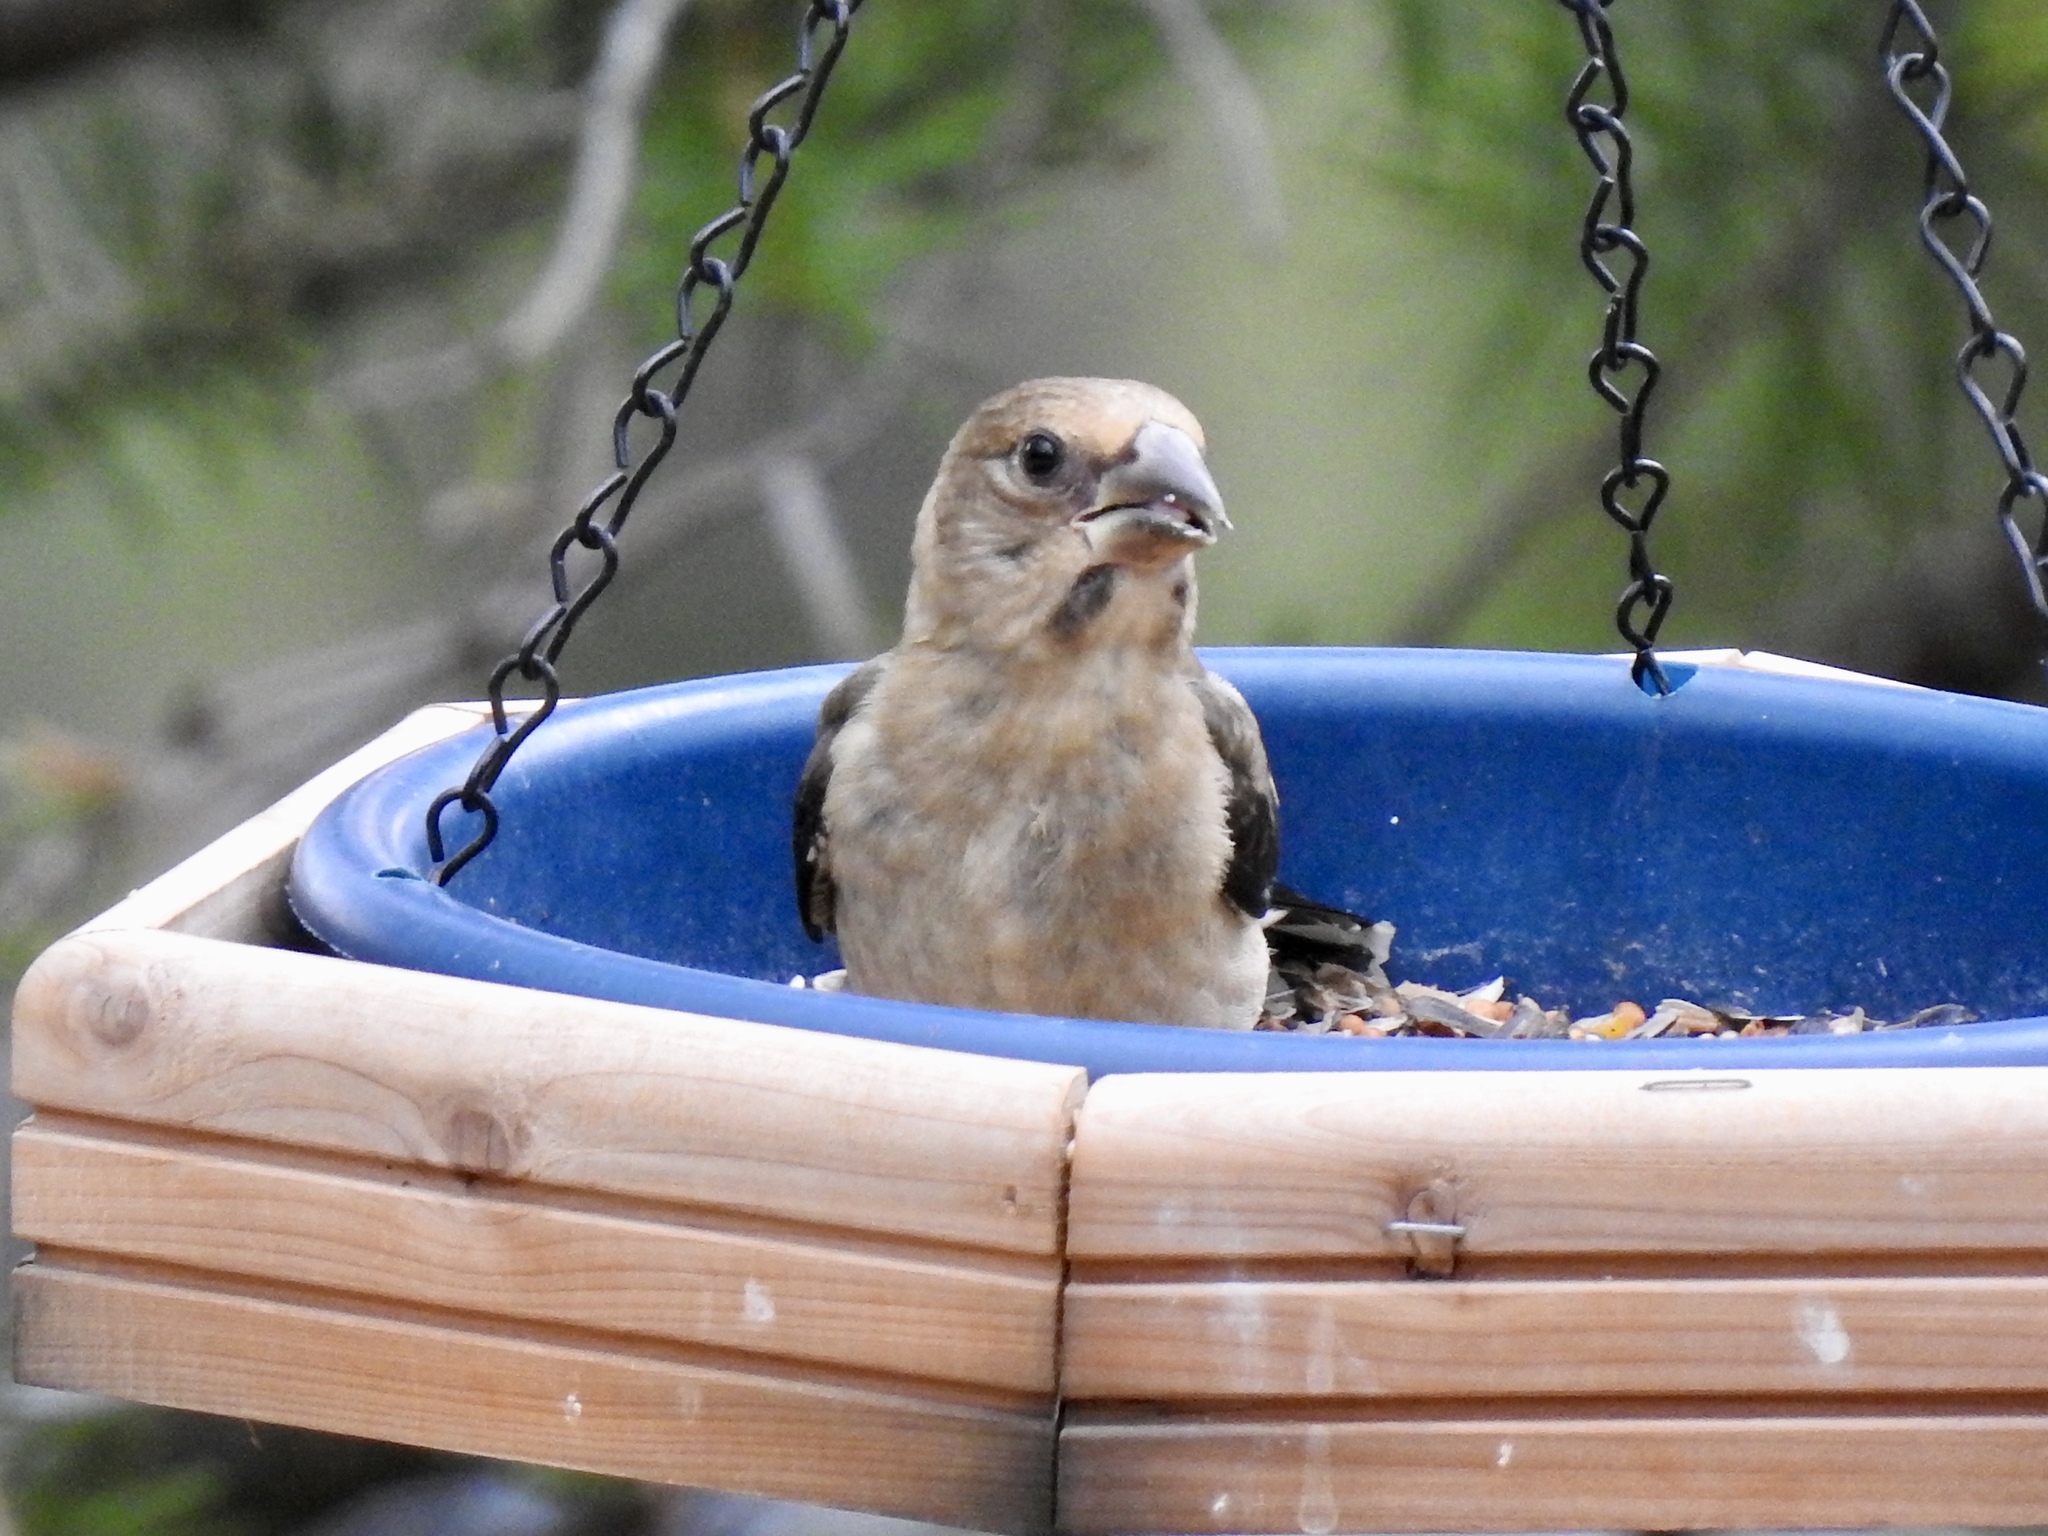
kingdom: Animalia
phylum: Chordata
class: Aves
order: Passeriformes
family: Fringillidae
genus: Hesperiphona
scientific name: Hesperiphona vespertina
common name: Evening grosbeak
